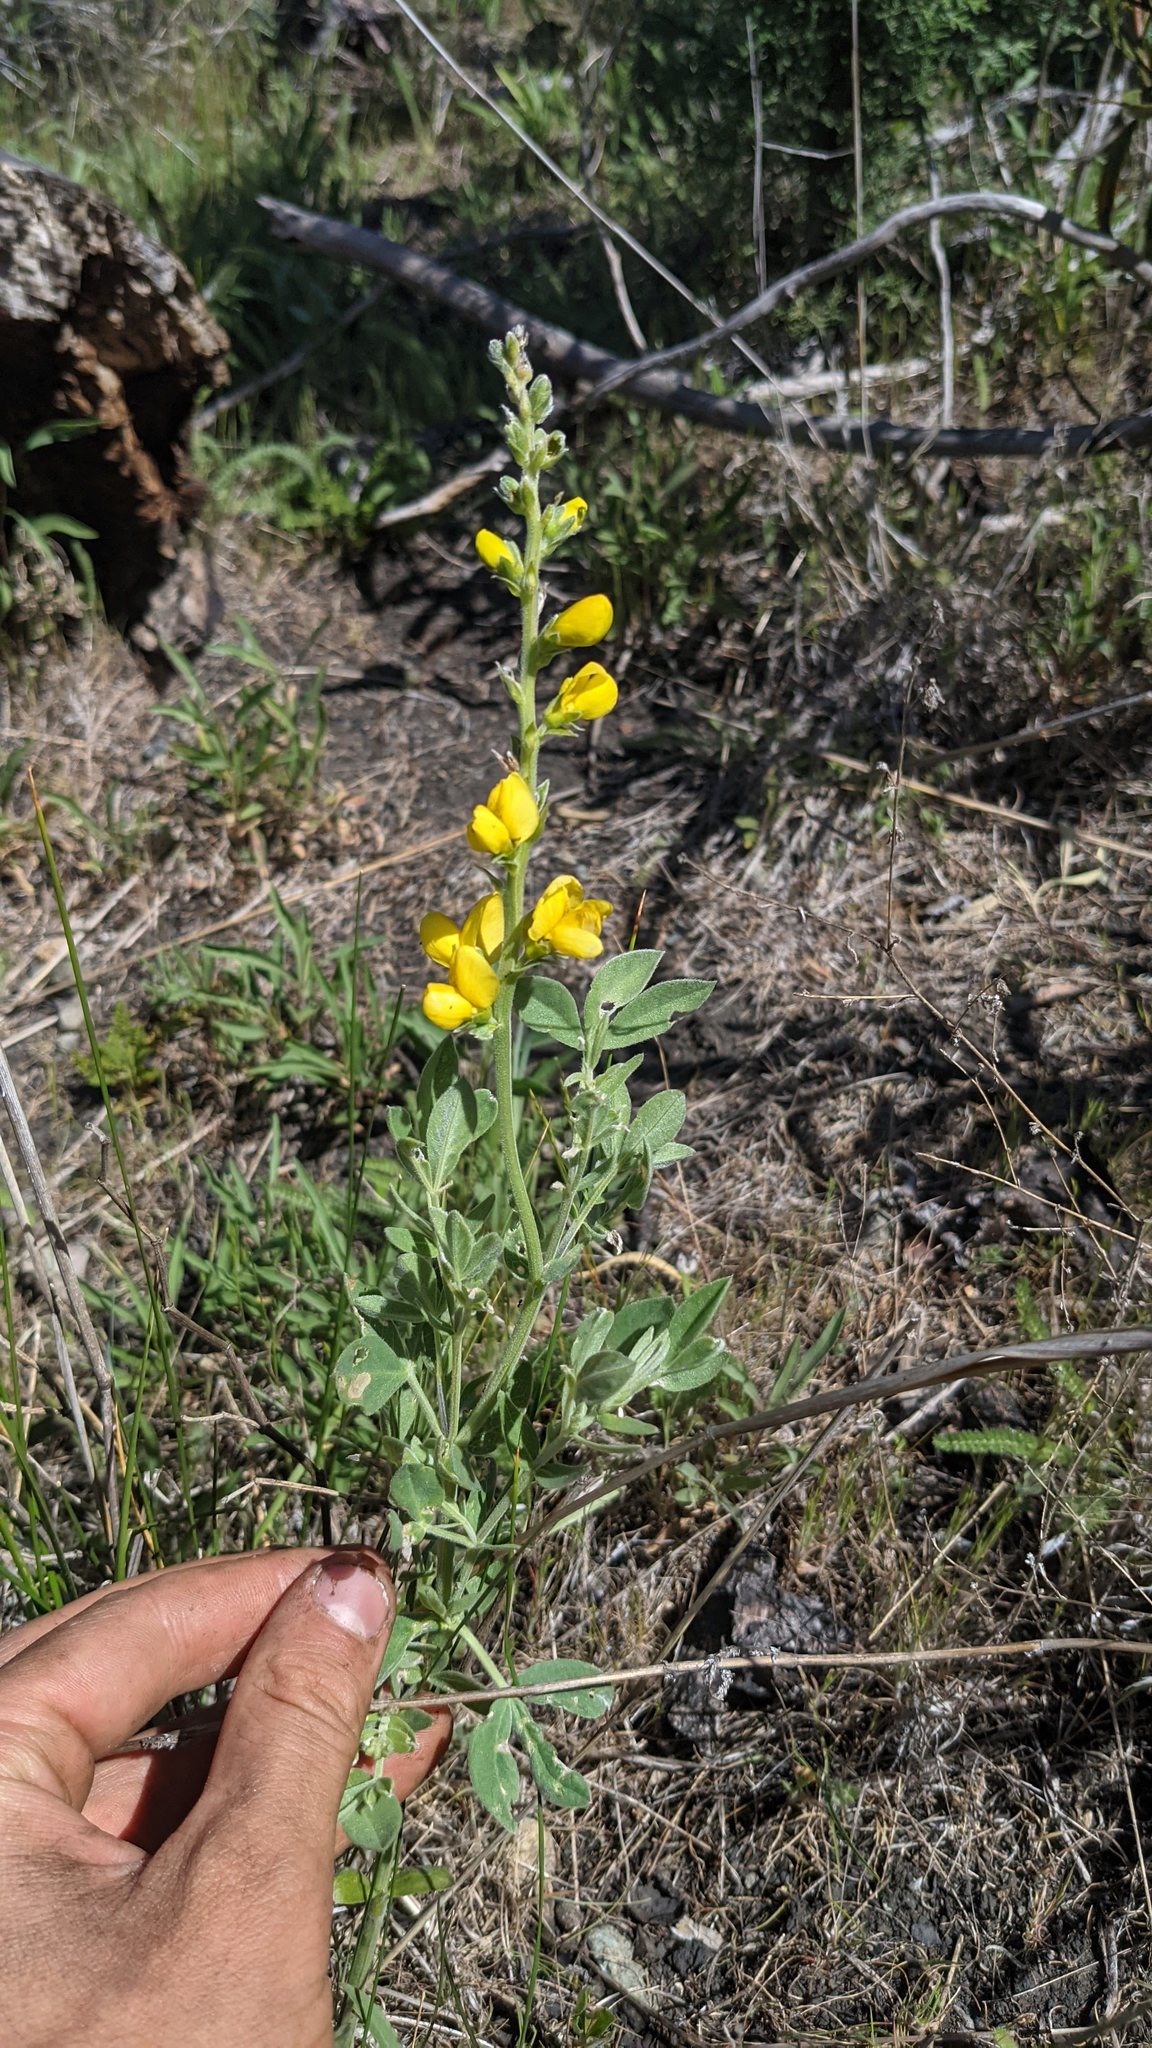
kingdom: Plantae
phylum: Tracheophyta
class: Magnoliopsida
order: Fabales
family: Fabaceae
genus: Thermopsis
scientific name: Thermopsis californica
